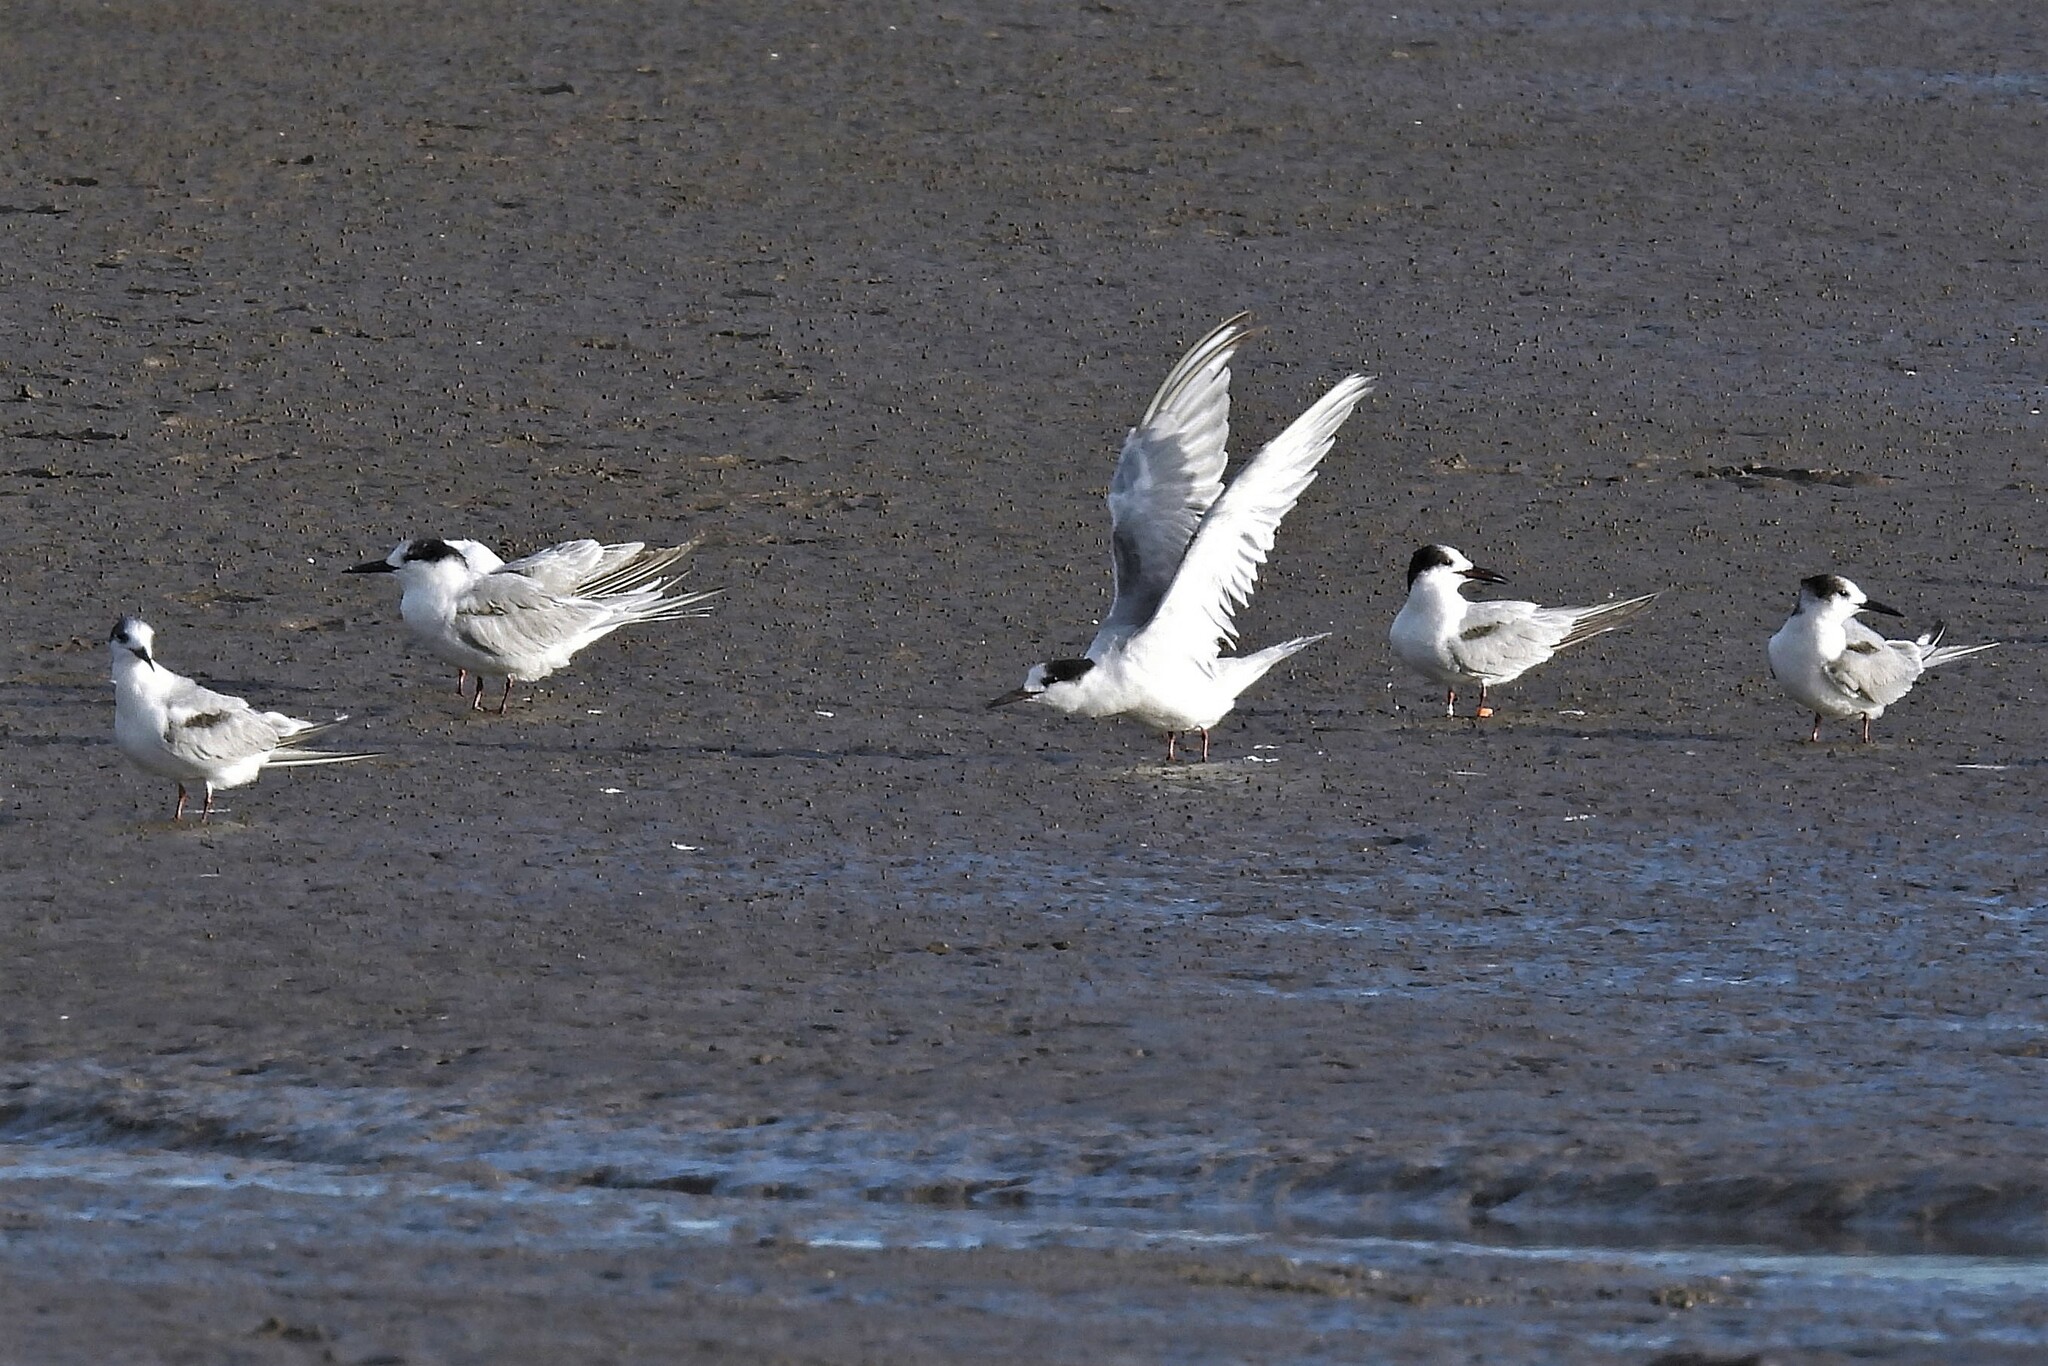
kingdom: Animalia
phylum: Chordata
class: Aves
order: Charadriiformes
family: Laridae
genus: Sterna
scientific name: Sterna hirundo
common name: Common tern
